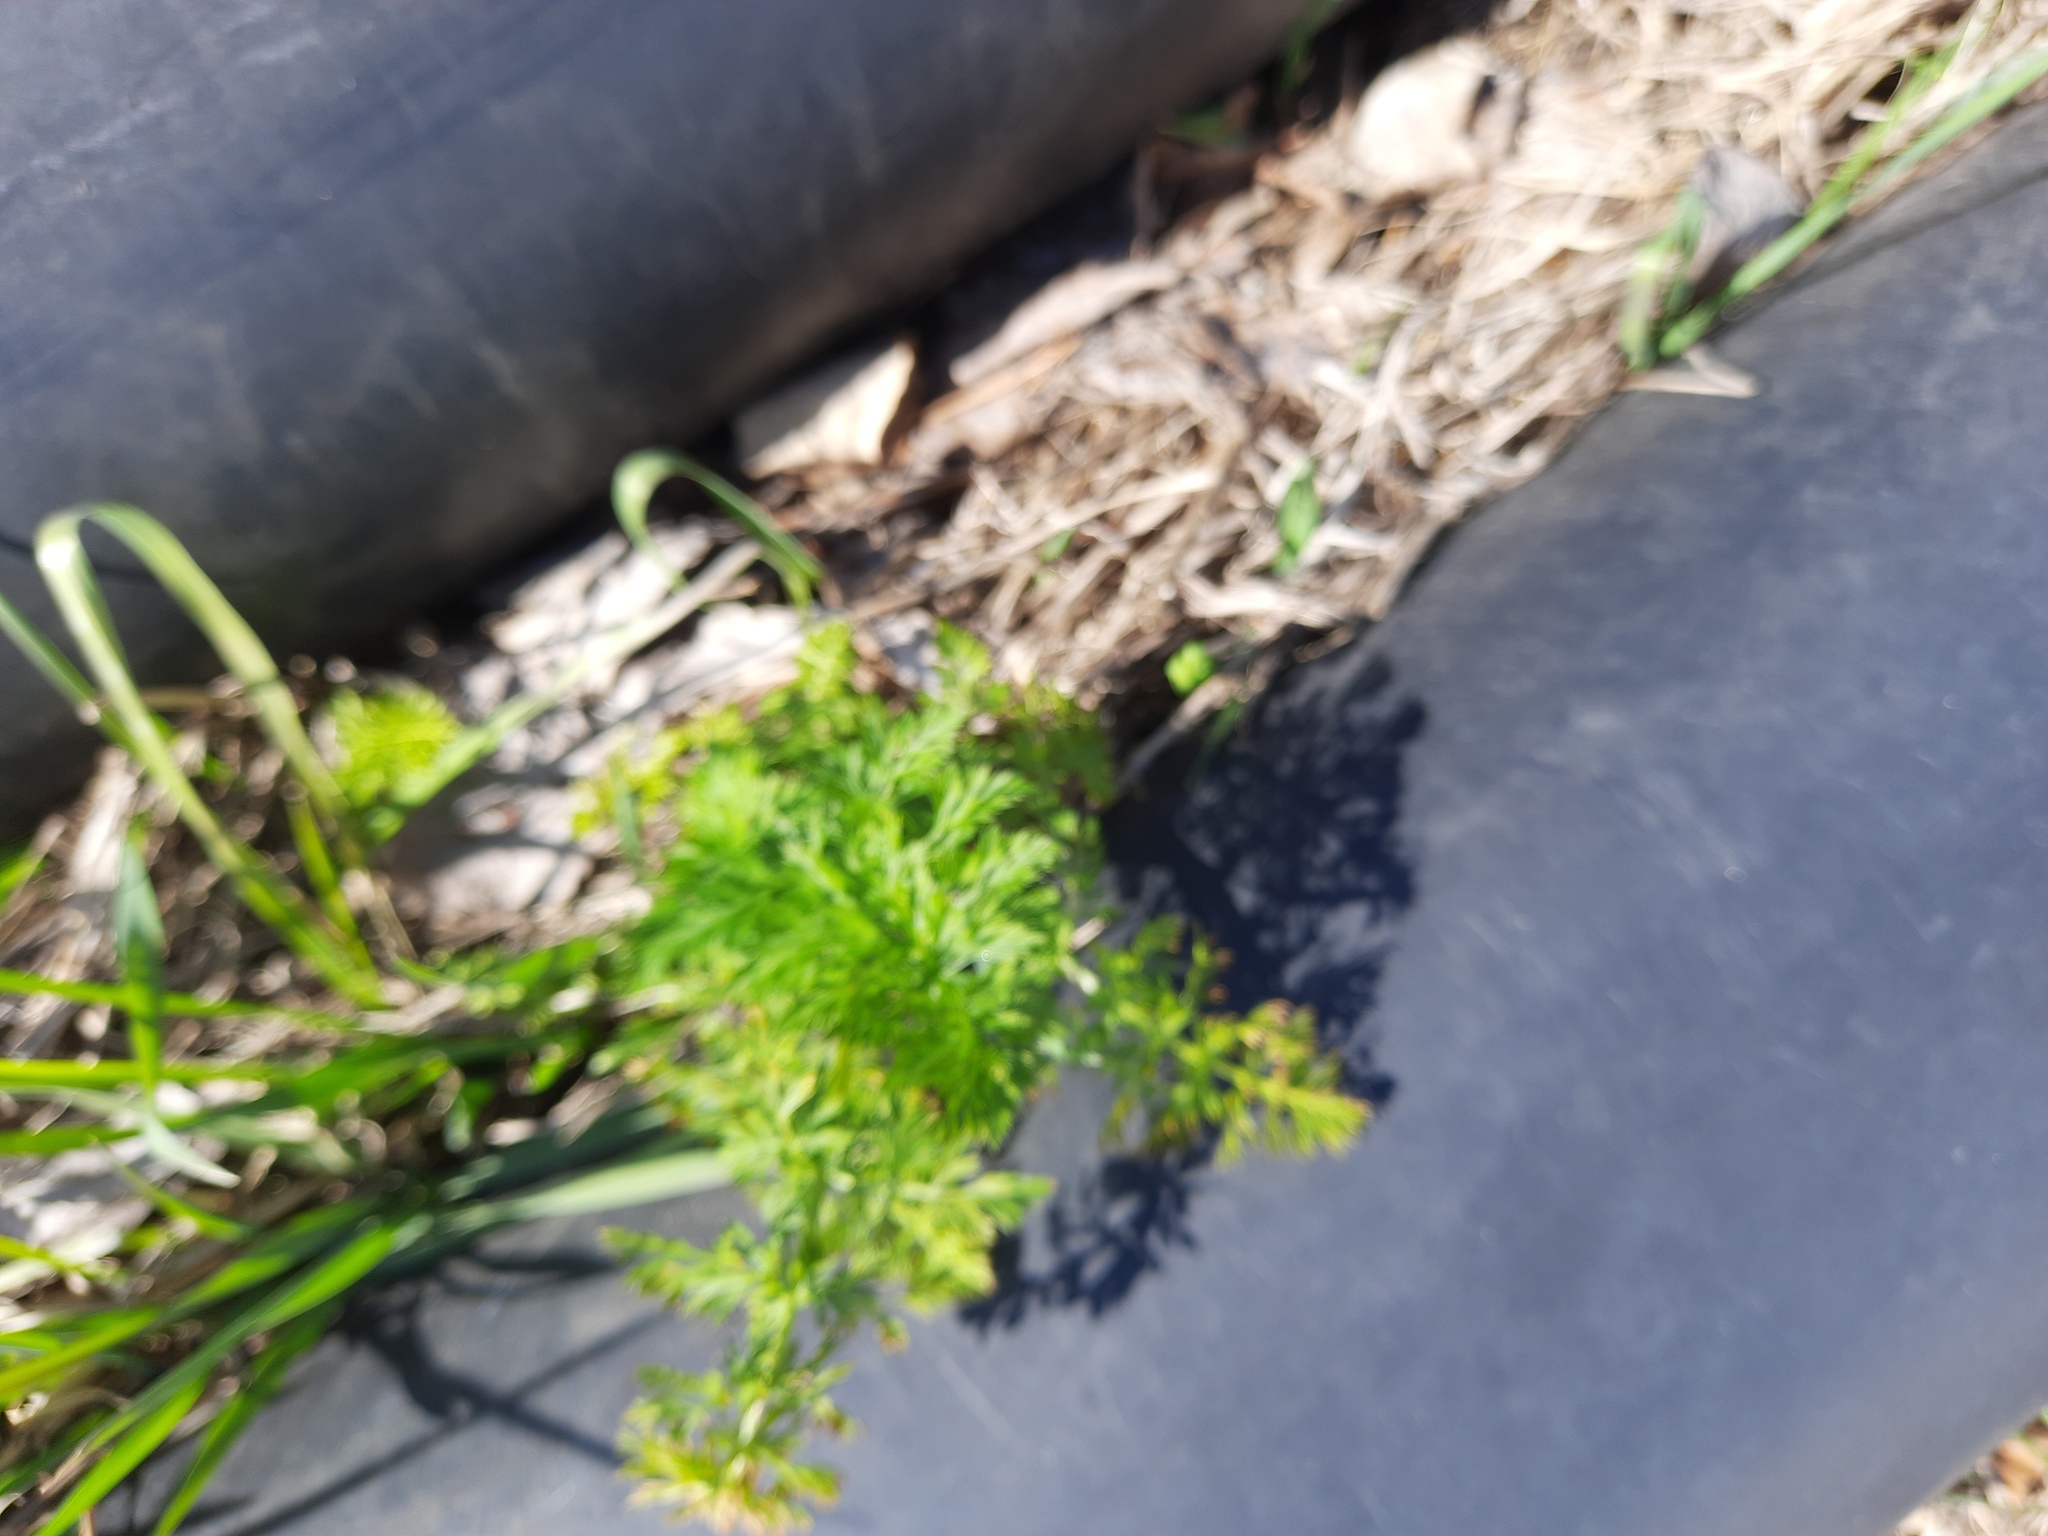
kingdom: Plantae
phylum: Tracheophyta
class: Magnoliopsida
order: Apiales
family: Apiaceae
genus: Carum
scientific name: Carum carvi
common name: Caraway
